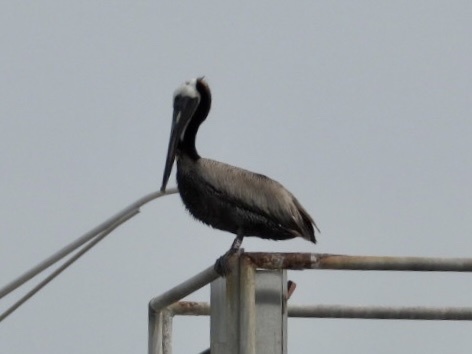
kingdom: Animalia
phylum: Chordata
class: Aves
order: Pelecaniformes
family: Pelecanidae
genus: Pelecanus
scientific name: Pelecanus occidentalis
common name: Brown pelican
